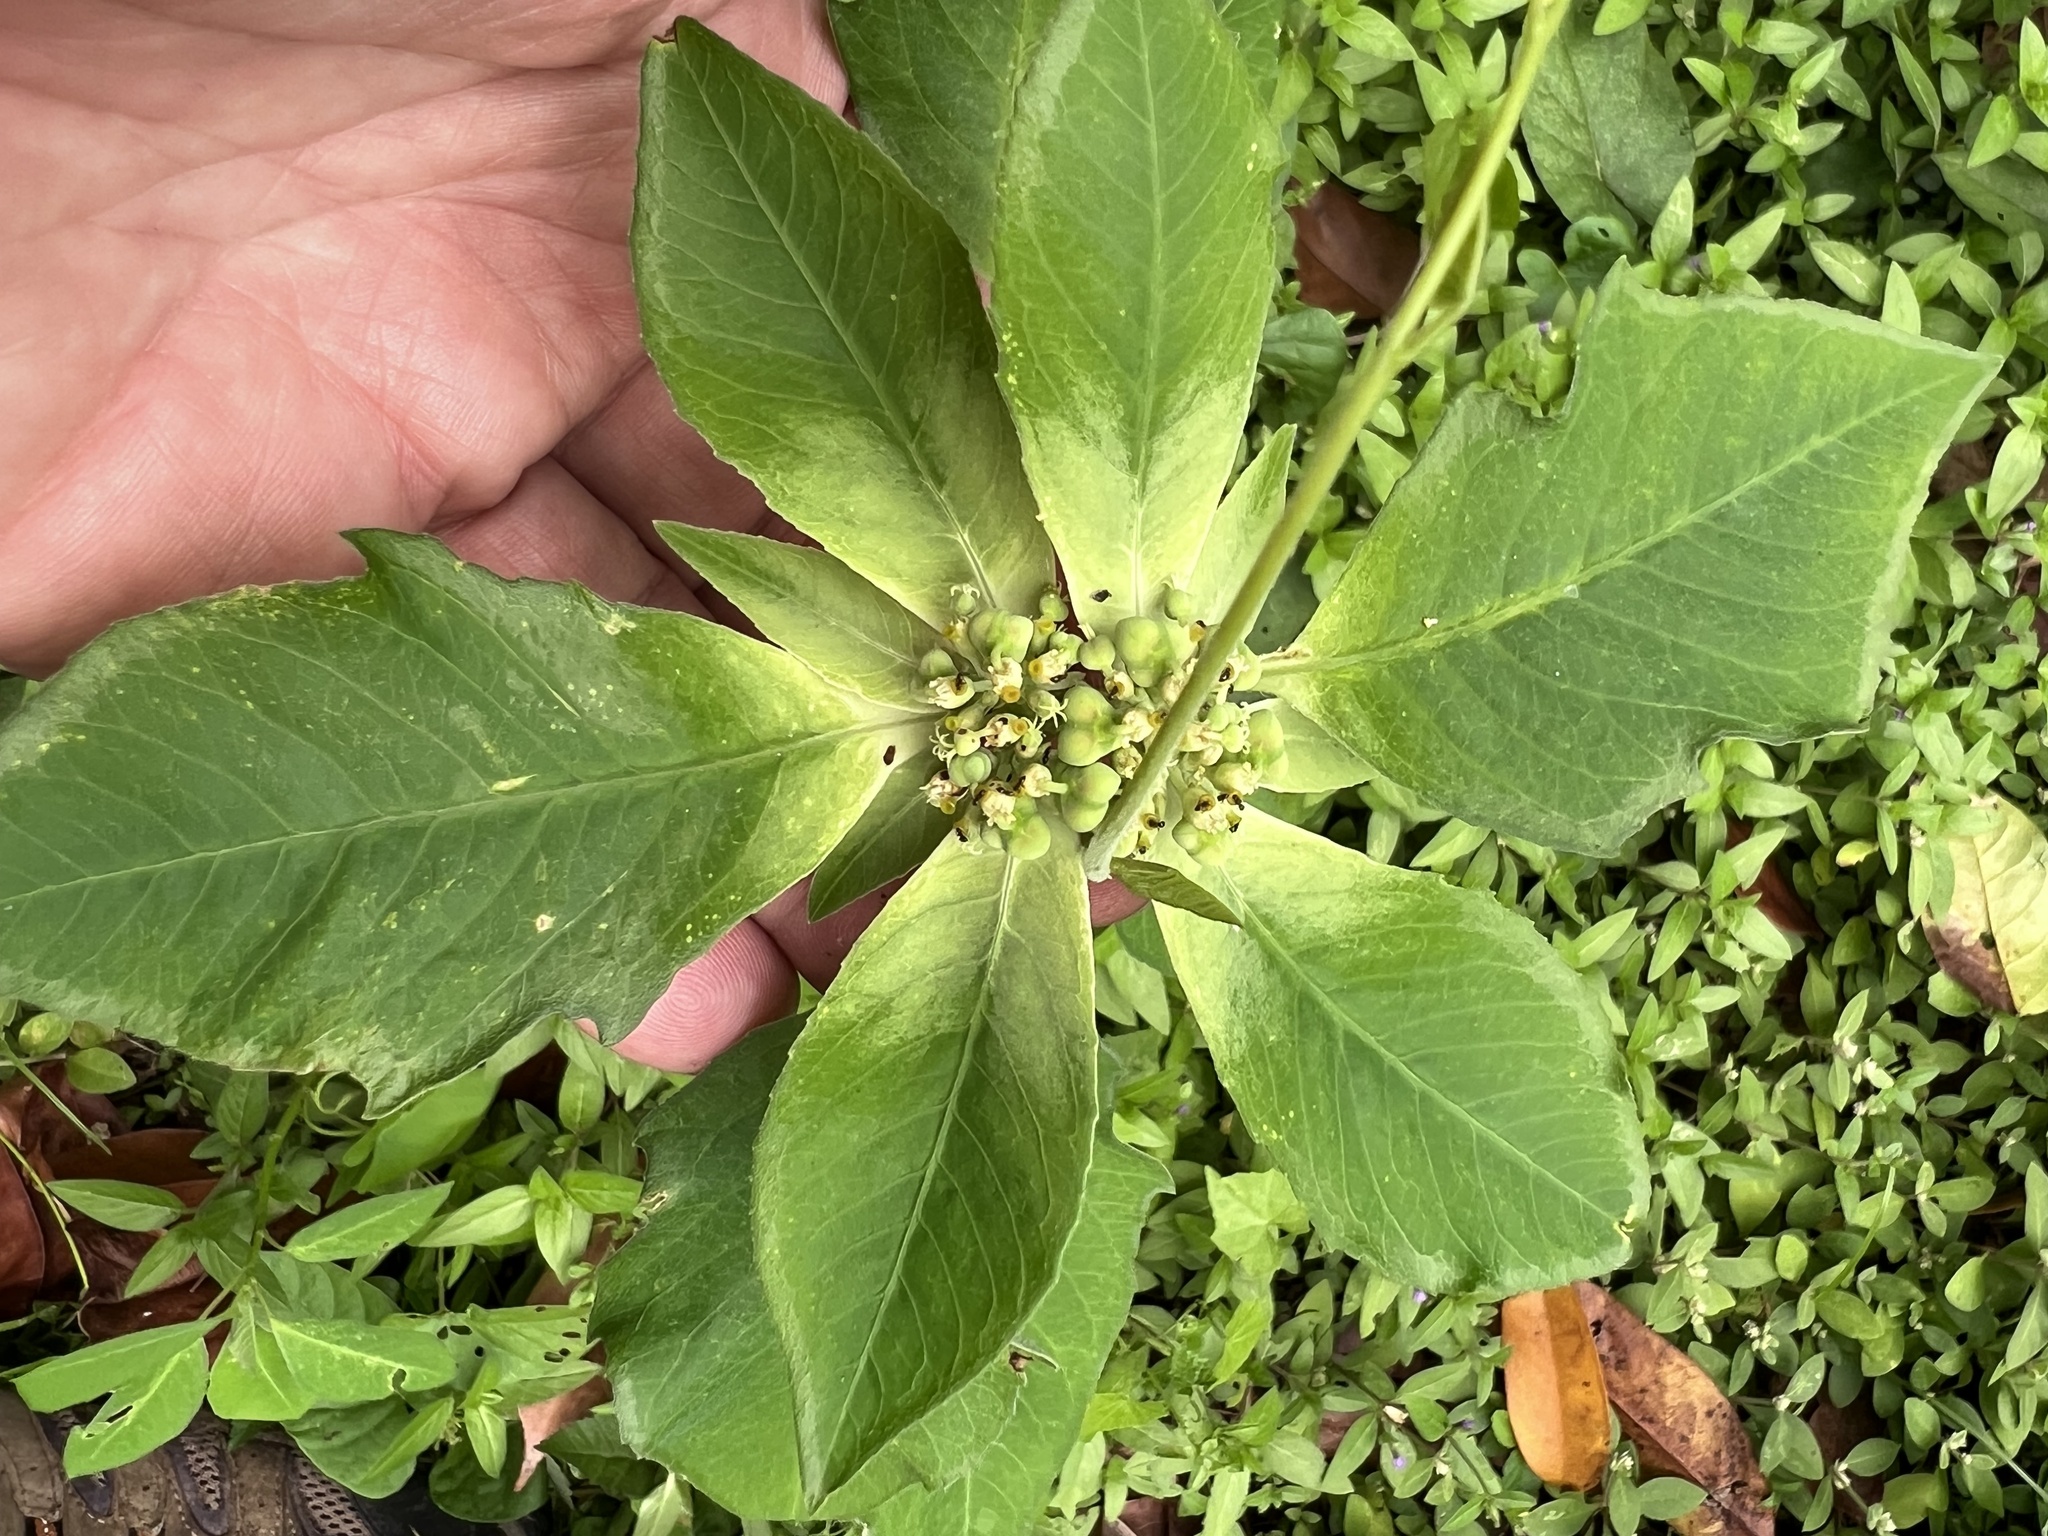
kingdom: Plantae
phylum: Tracheophyta
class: Magnoliopsida
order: Malpighiales
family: Euphorbiaceae
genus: Euphorbia
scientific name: Euphorbia heterophylla
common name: Mexican fireplant
